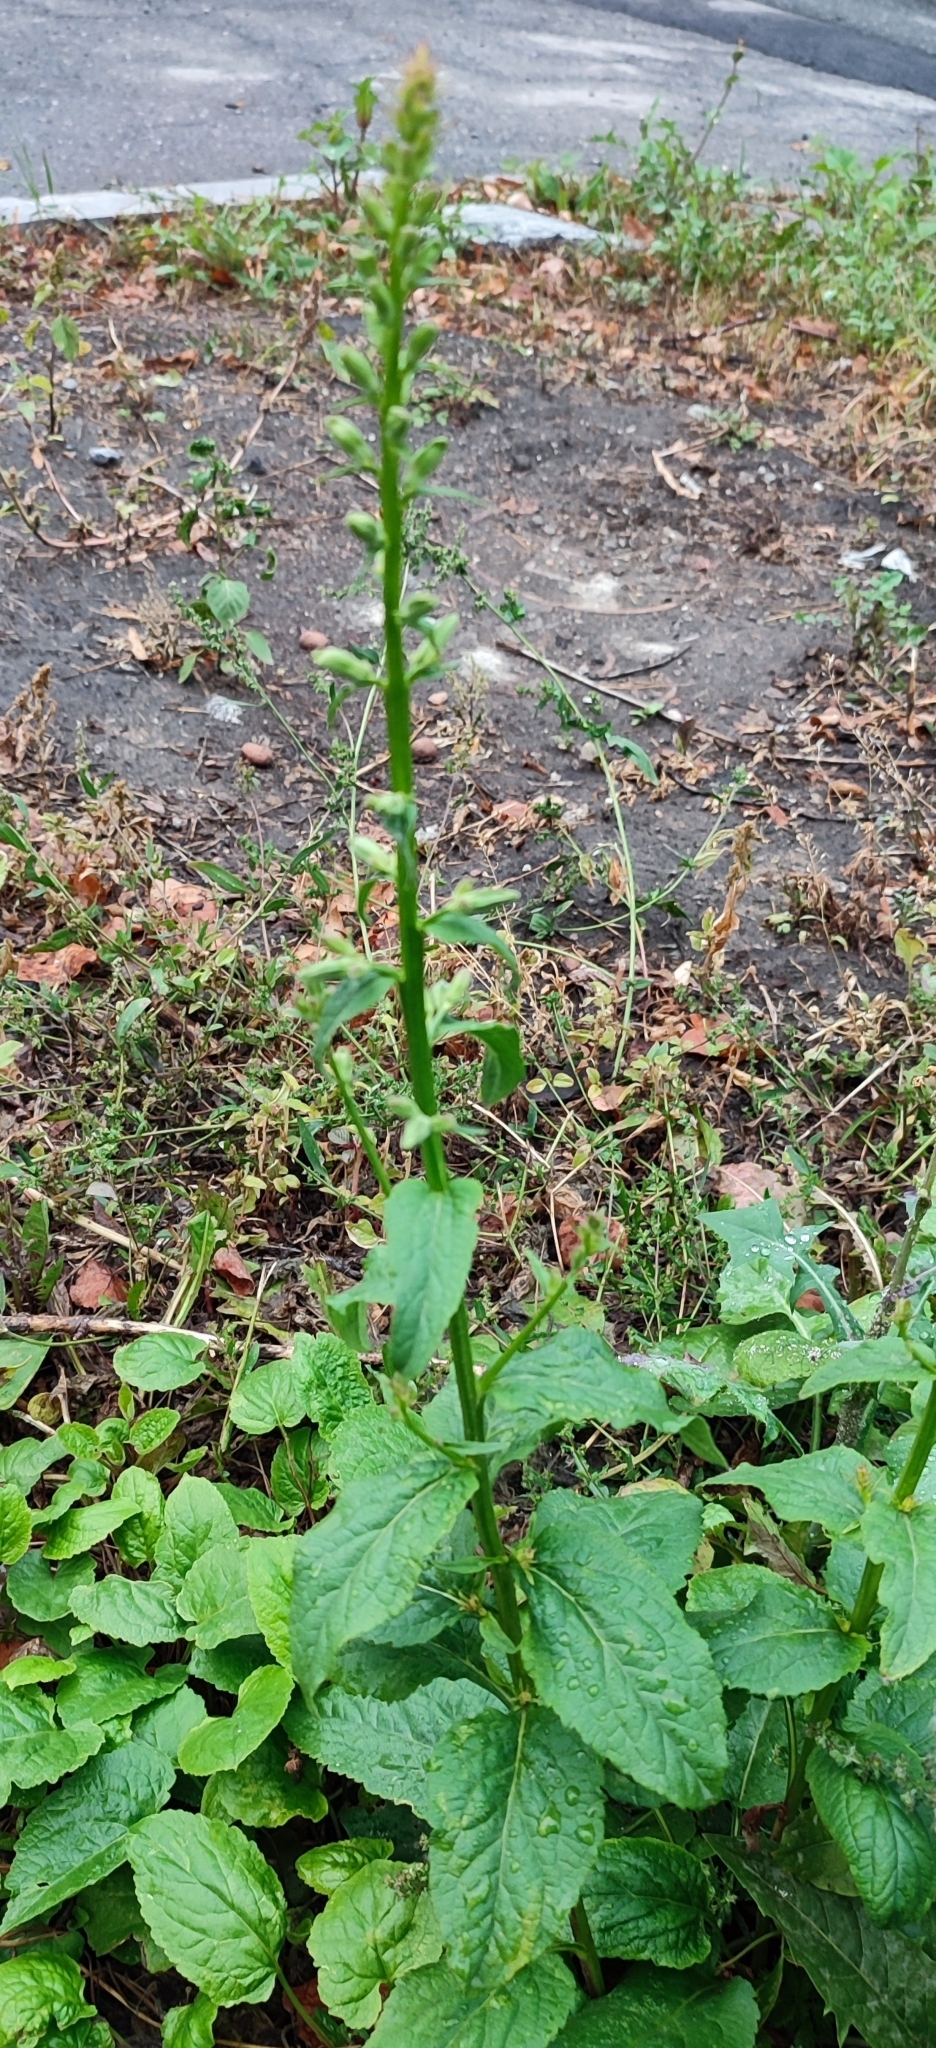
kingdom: Plantae
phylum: Tracheophyta
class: Magnoliopsida
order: Asterales
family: Campanulaceae
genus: Campanula
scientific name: Campanula rapunculoides
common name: Creeping bellflower
